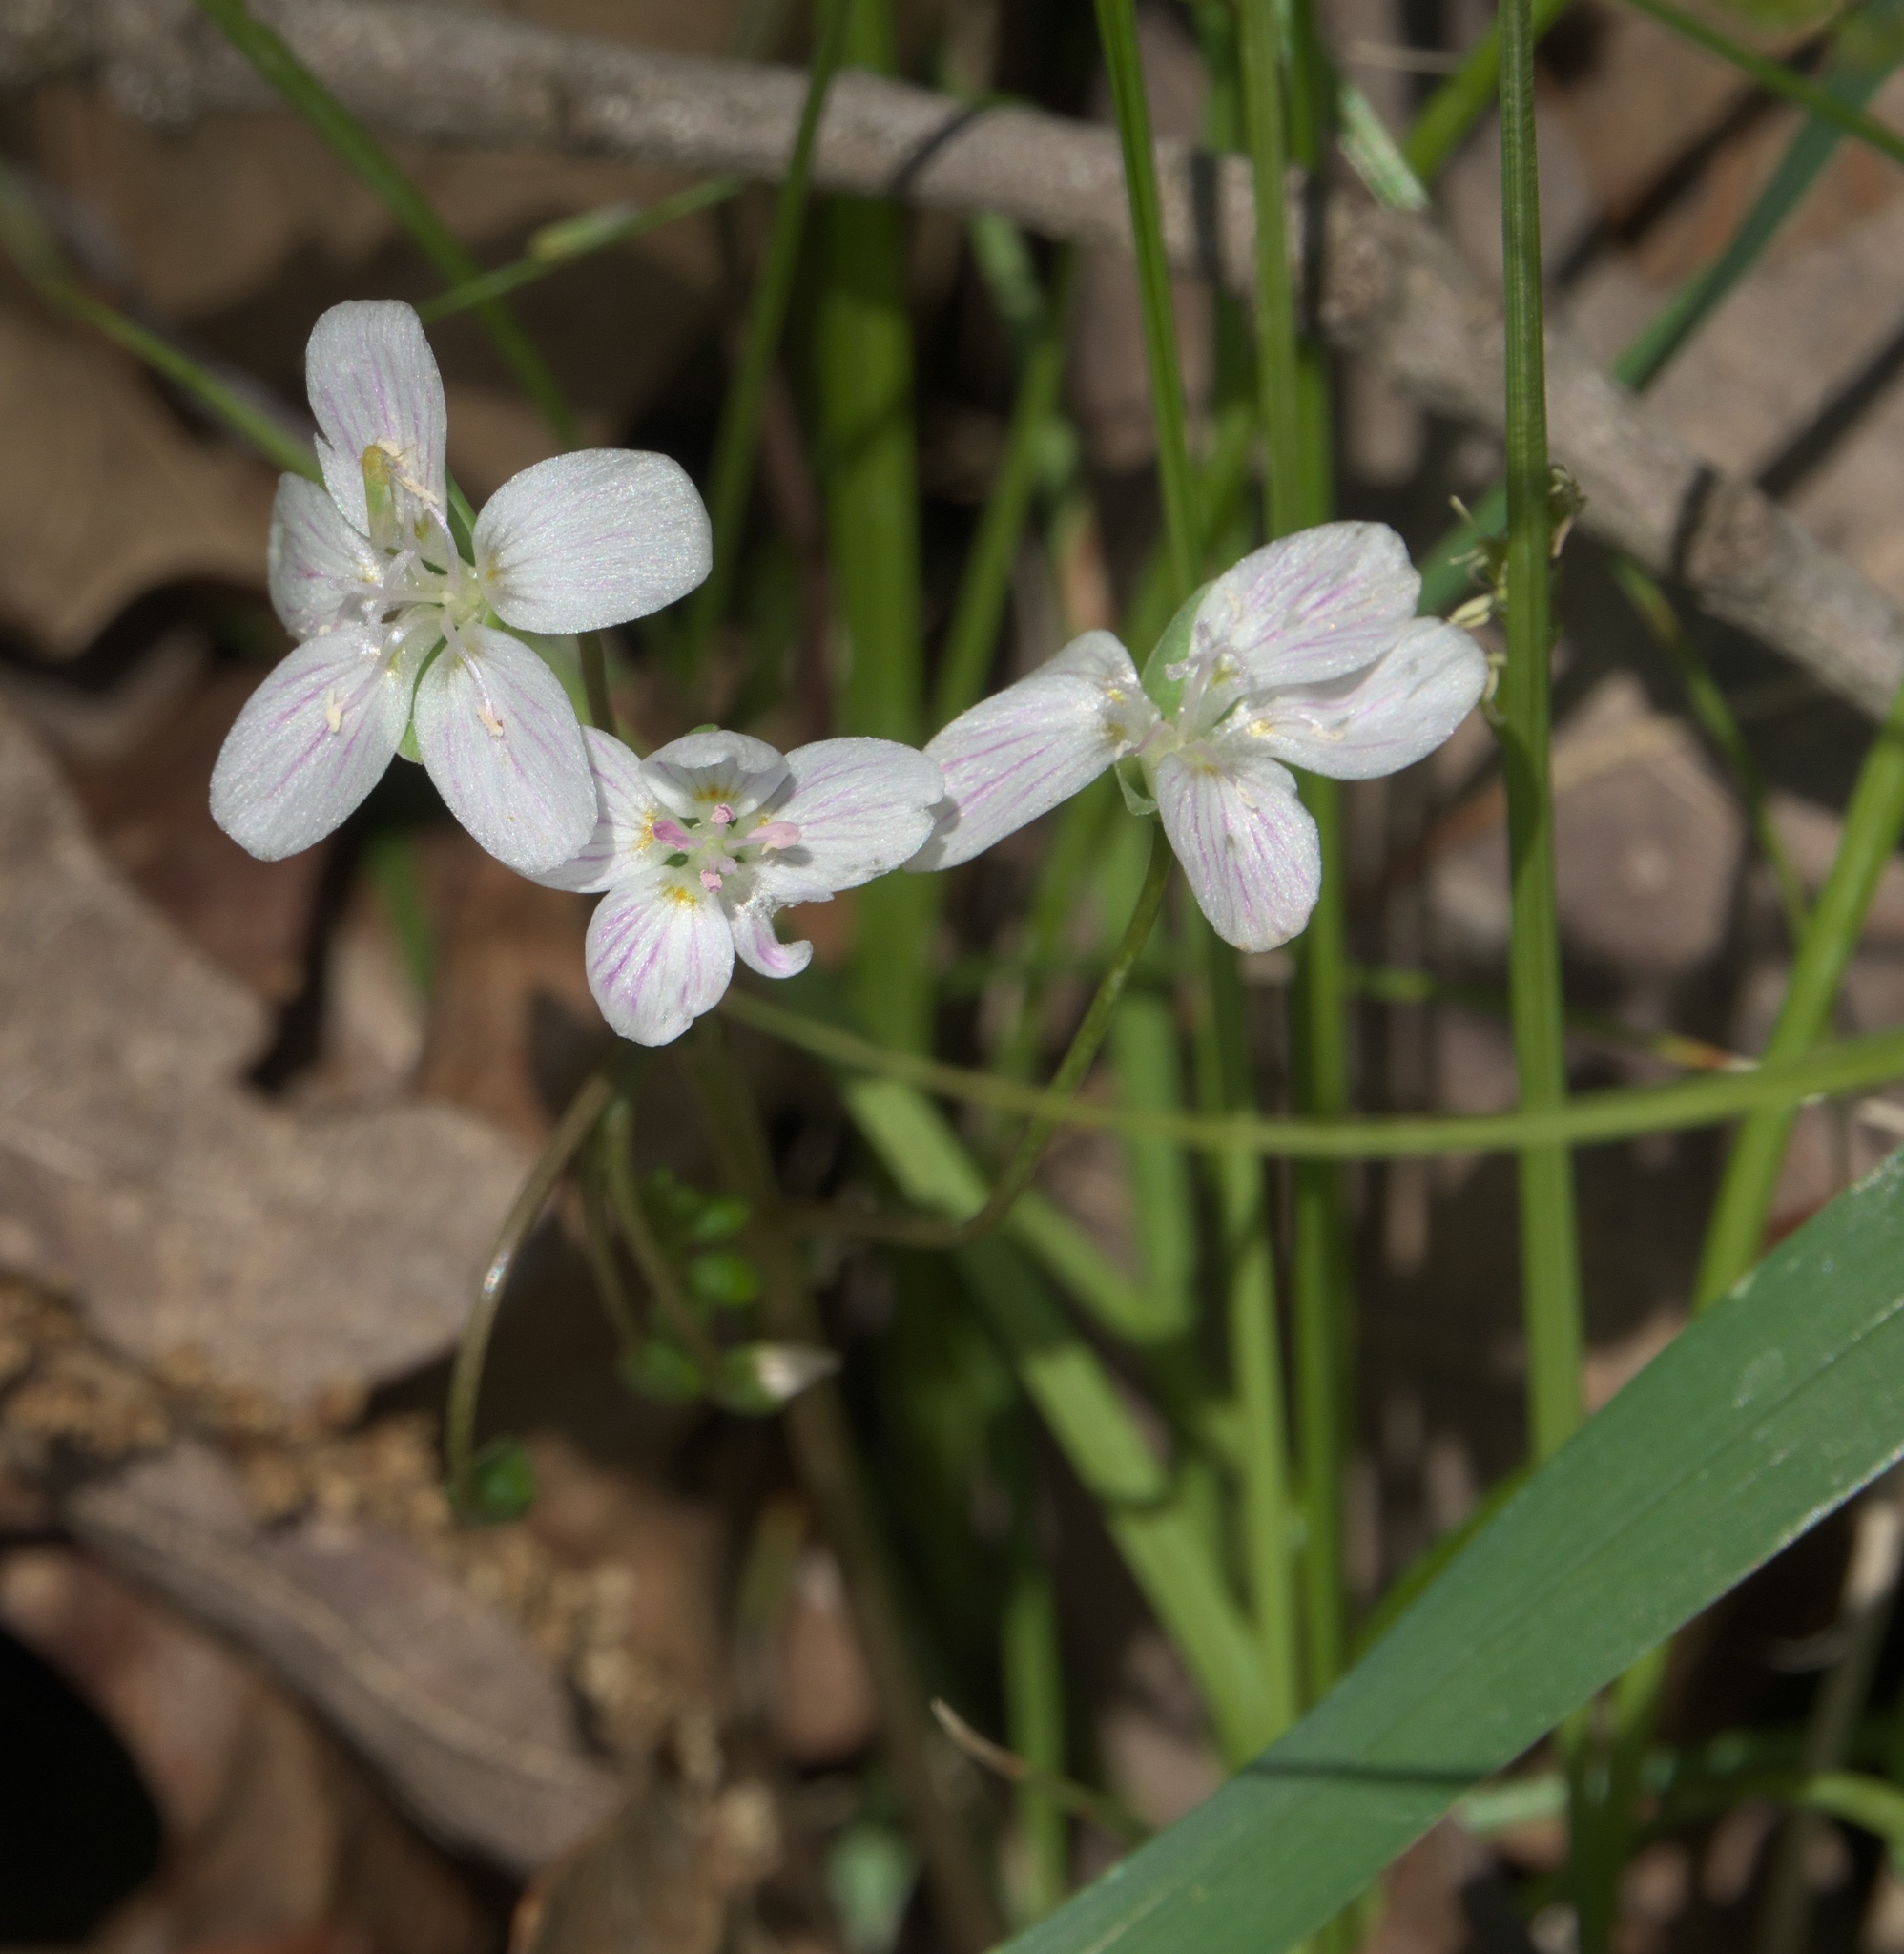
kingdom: Plantae
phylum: Tracheophyta
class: Magnoliopsida
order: Caryophyllales
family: Montiaceae
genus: Claytonia
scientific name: Claytonia virginica
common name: Virginia springbeauty
